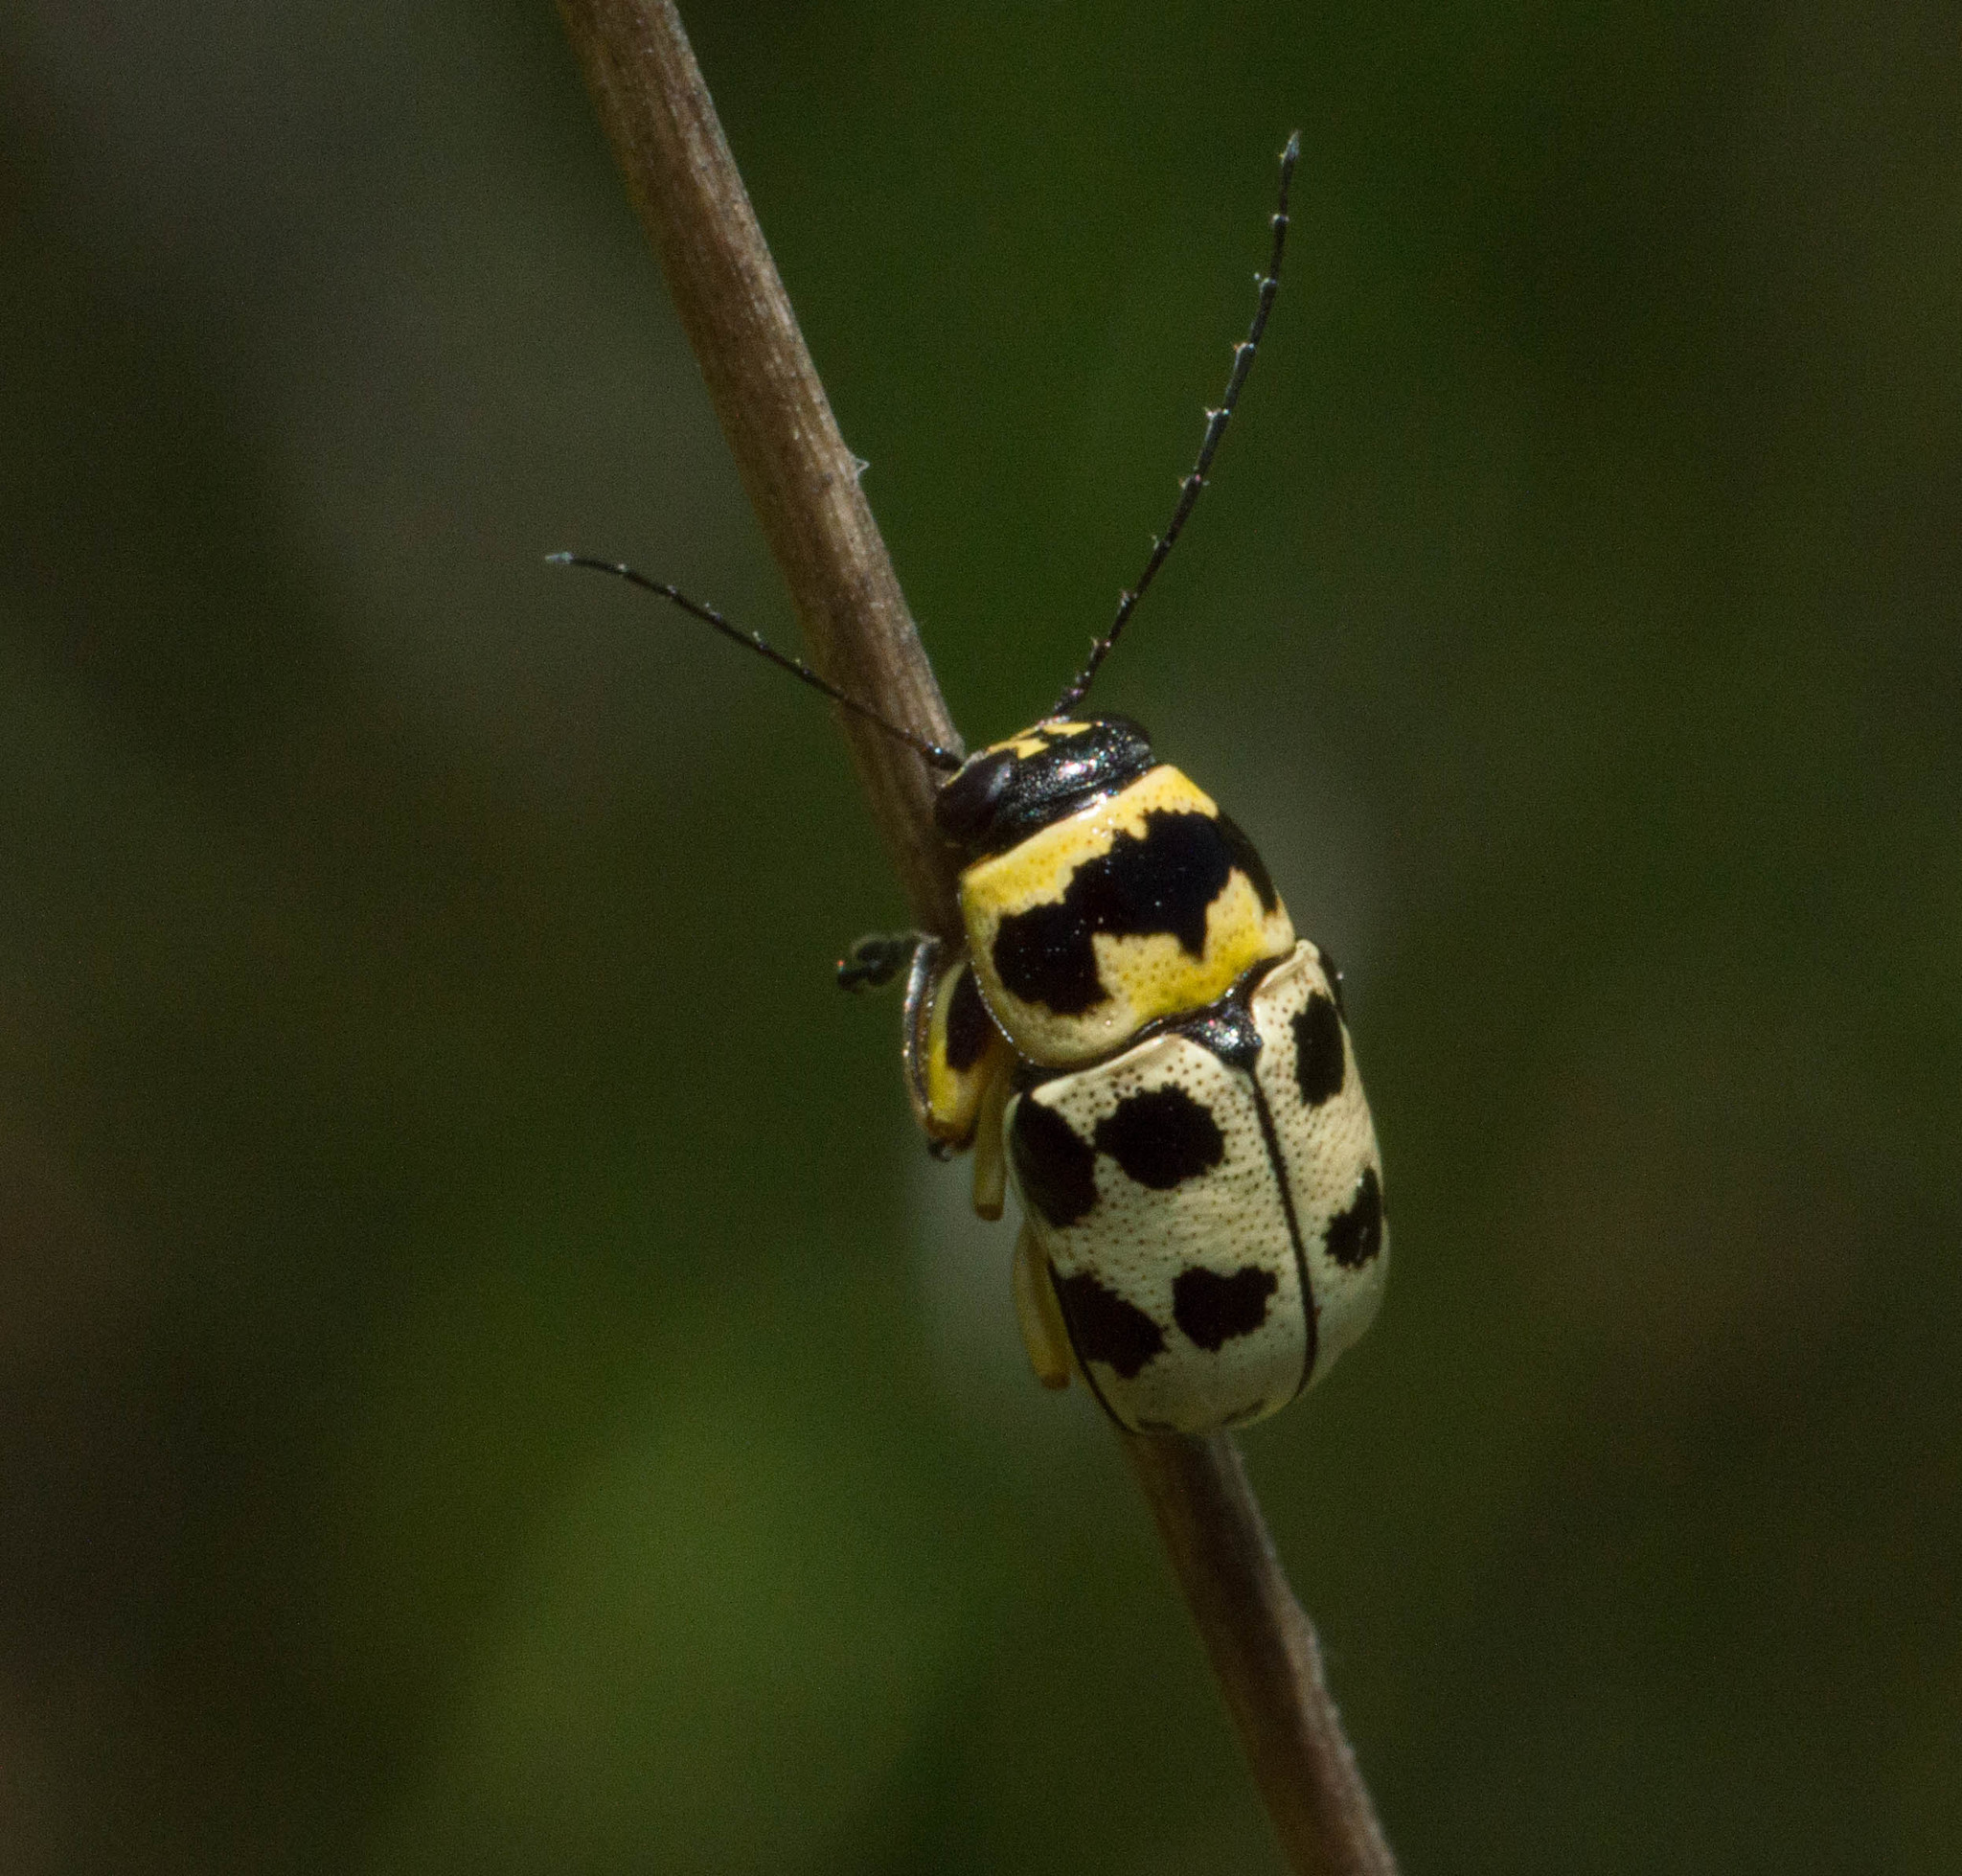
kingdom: Animalia
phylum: Arthropoda
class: Insecta
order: Coleoptera
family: Chrysomelidae
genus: Metallactus
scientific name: Metallactus pollens
